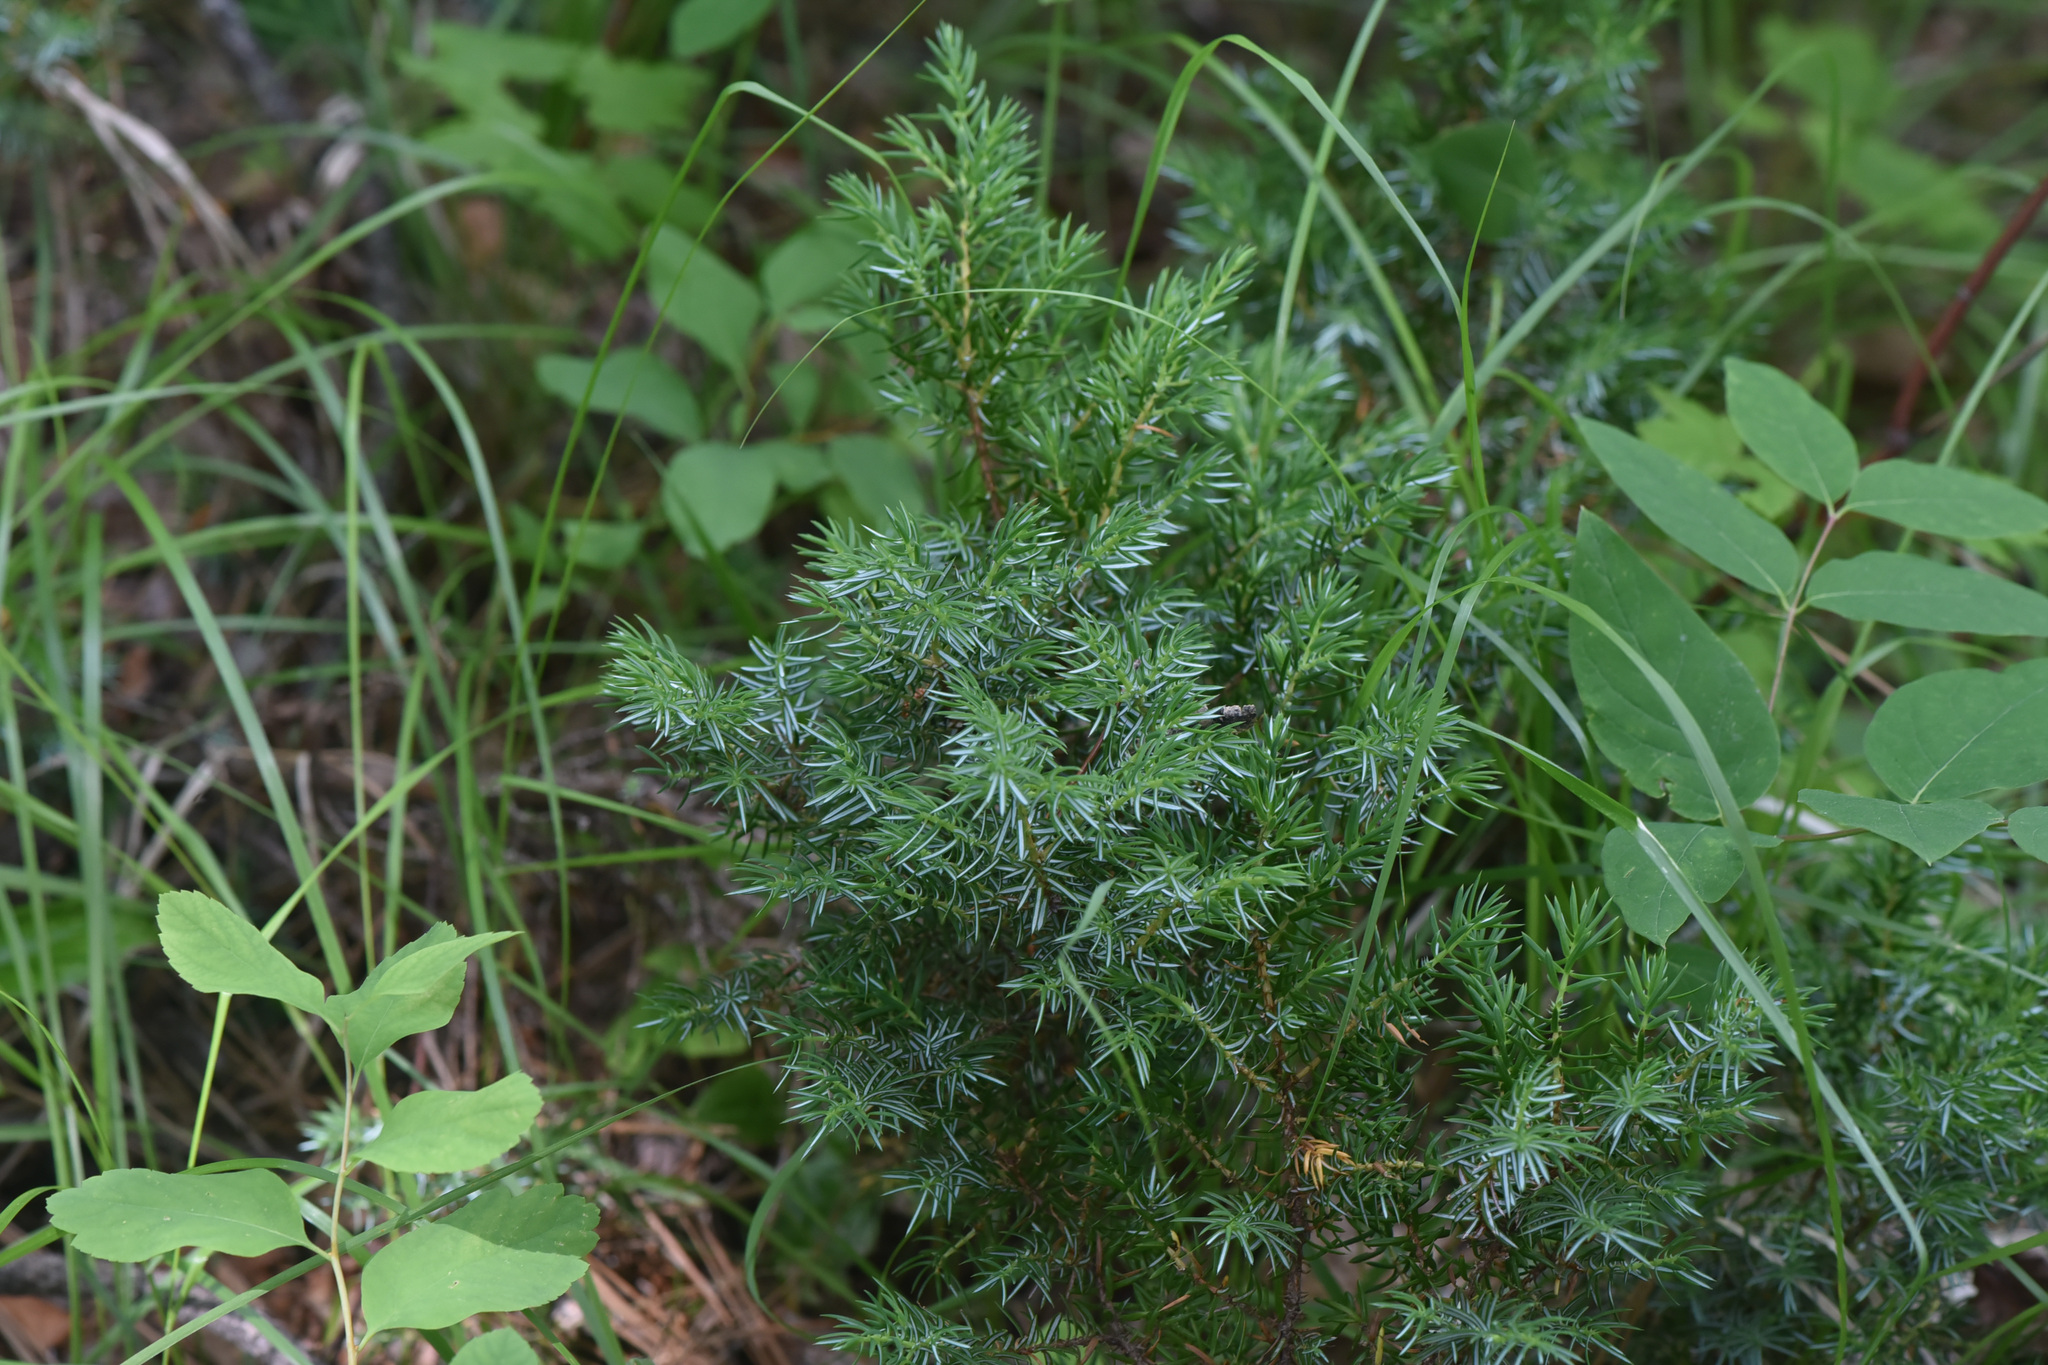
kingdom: Plantae
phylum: Tracheophyta
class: Pinopsida
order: Pinales
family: Cupressaceae
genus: Juniperus
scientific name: Juniperus communis
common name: Common juniper
